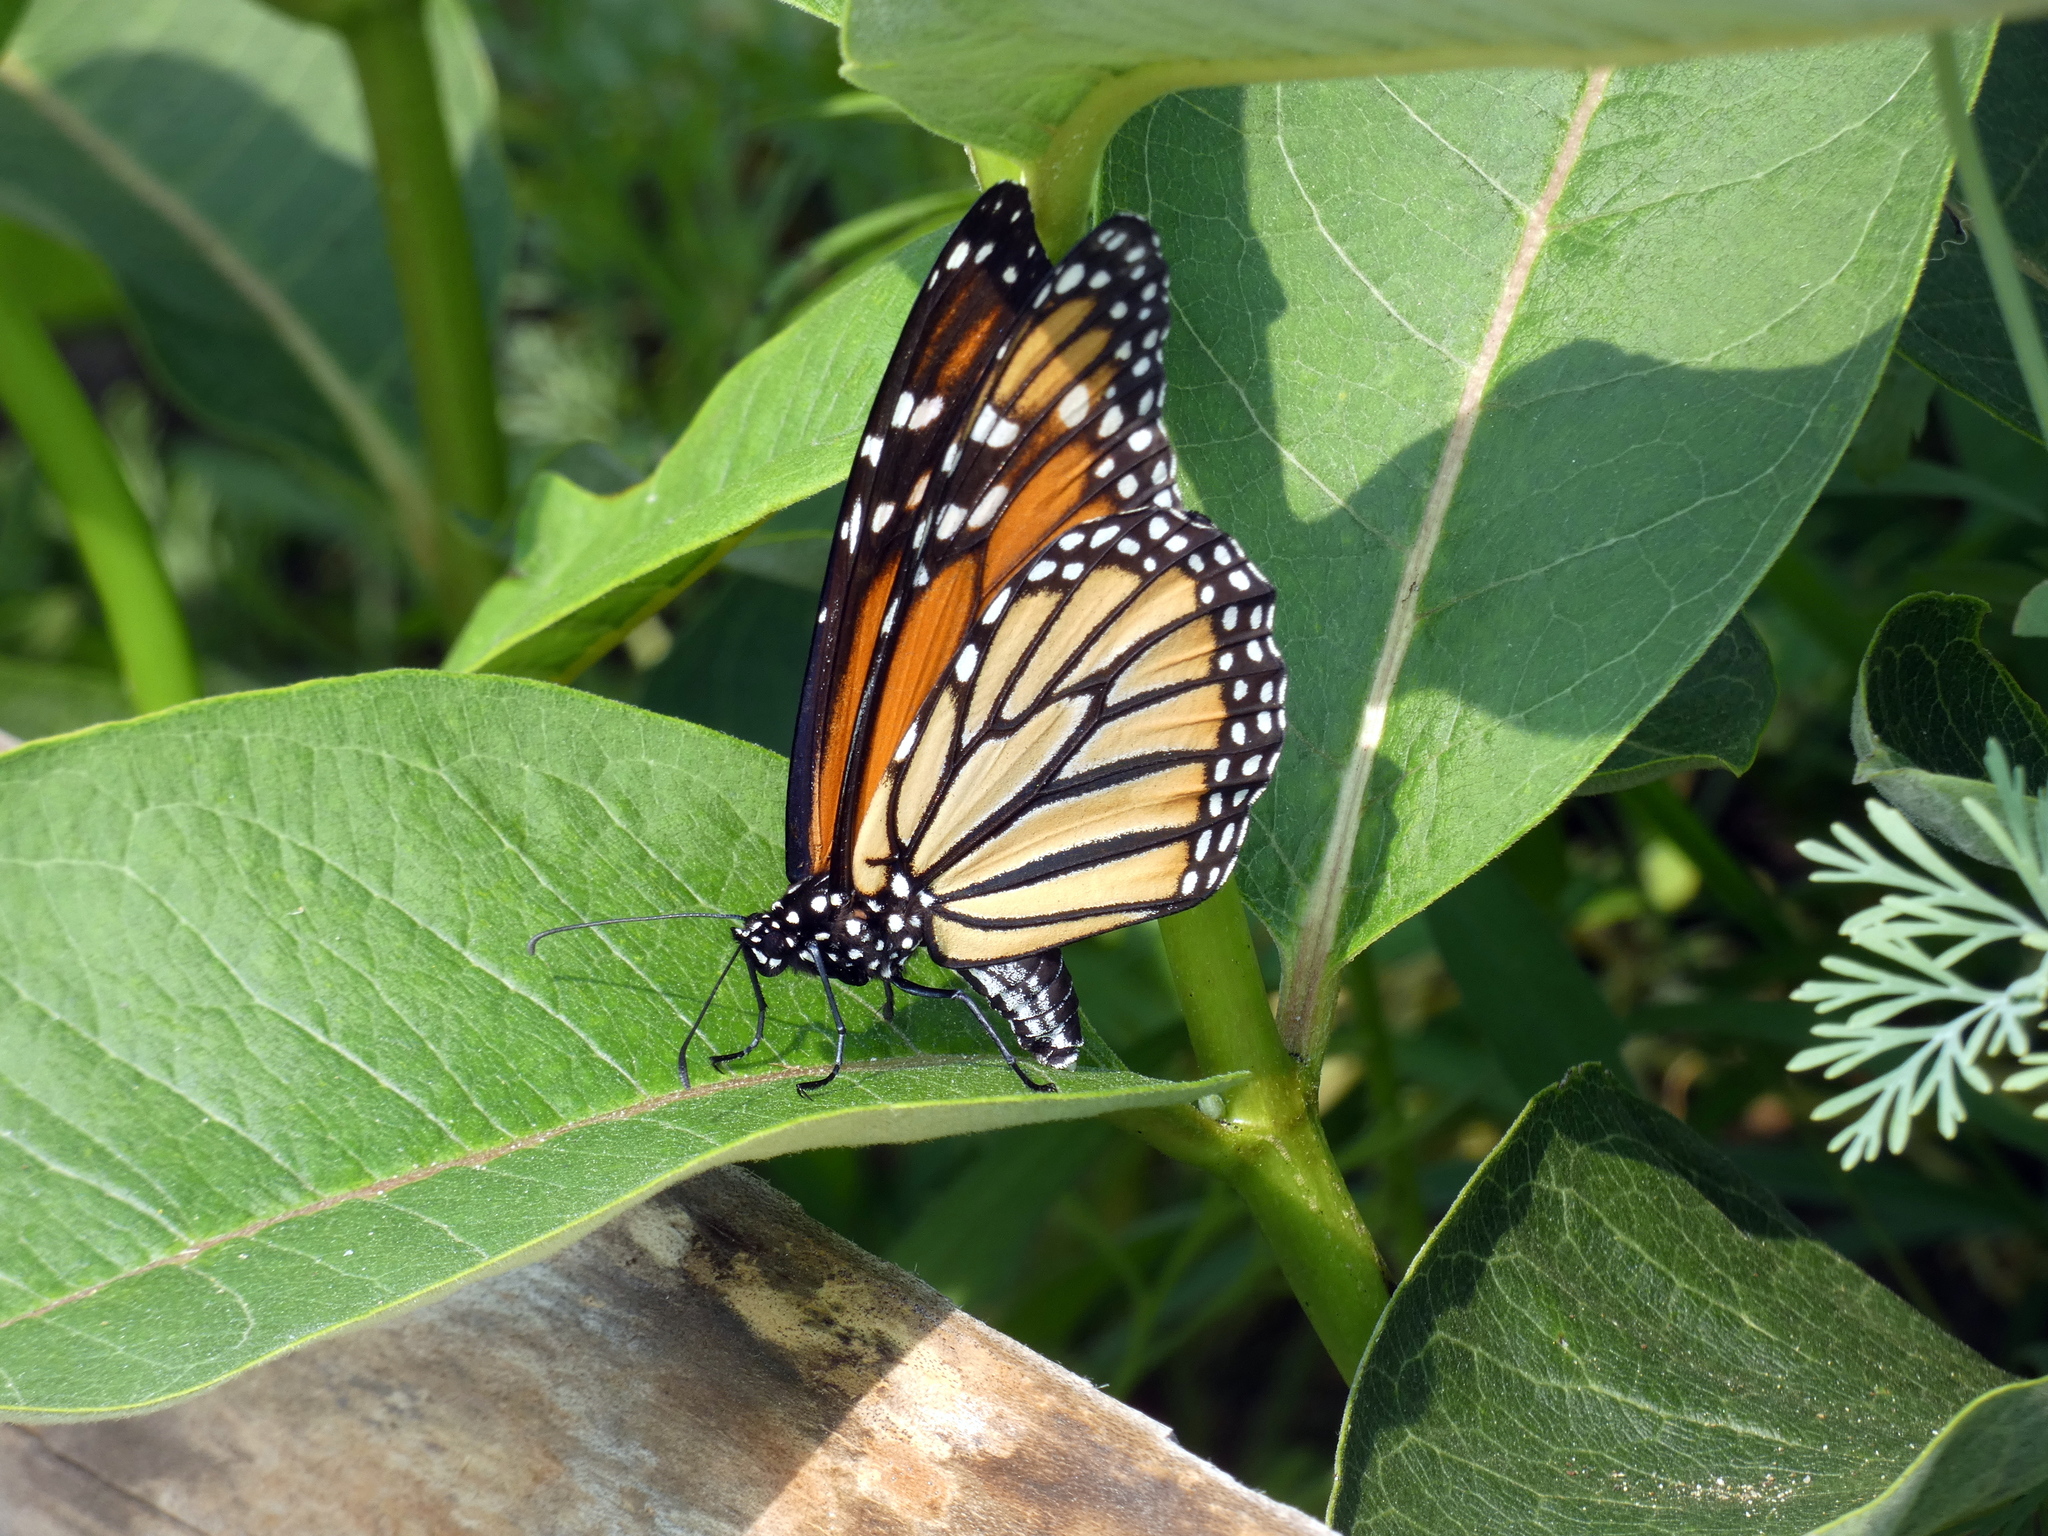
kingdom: Animalia
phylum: Arthropoda
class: Insecta
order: Lepidoptera
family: Nymphalidae
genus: Danaus
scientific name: Danaus plexippus
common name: Monarch
